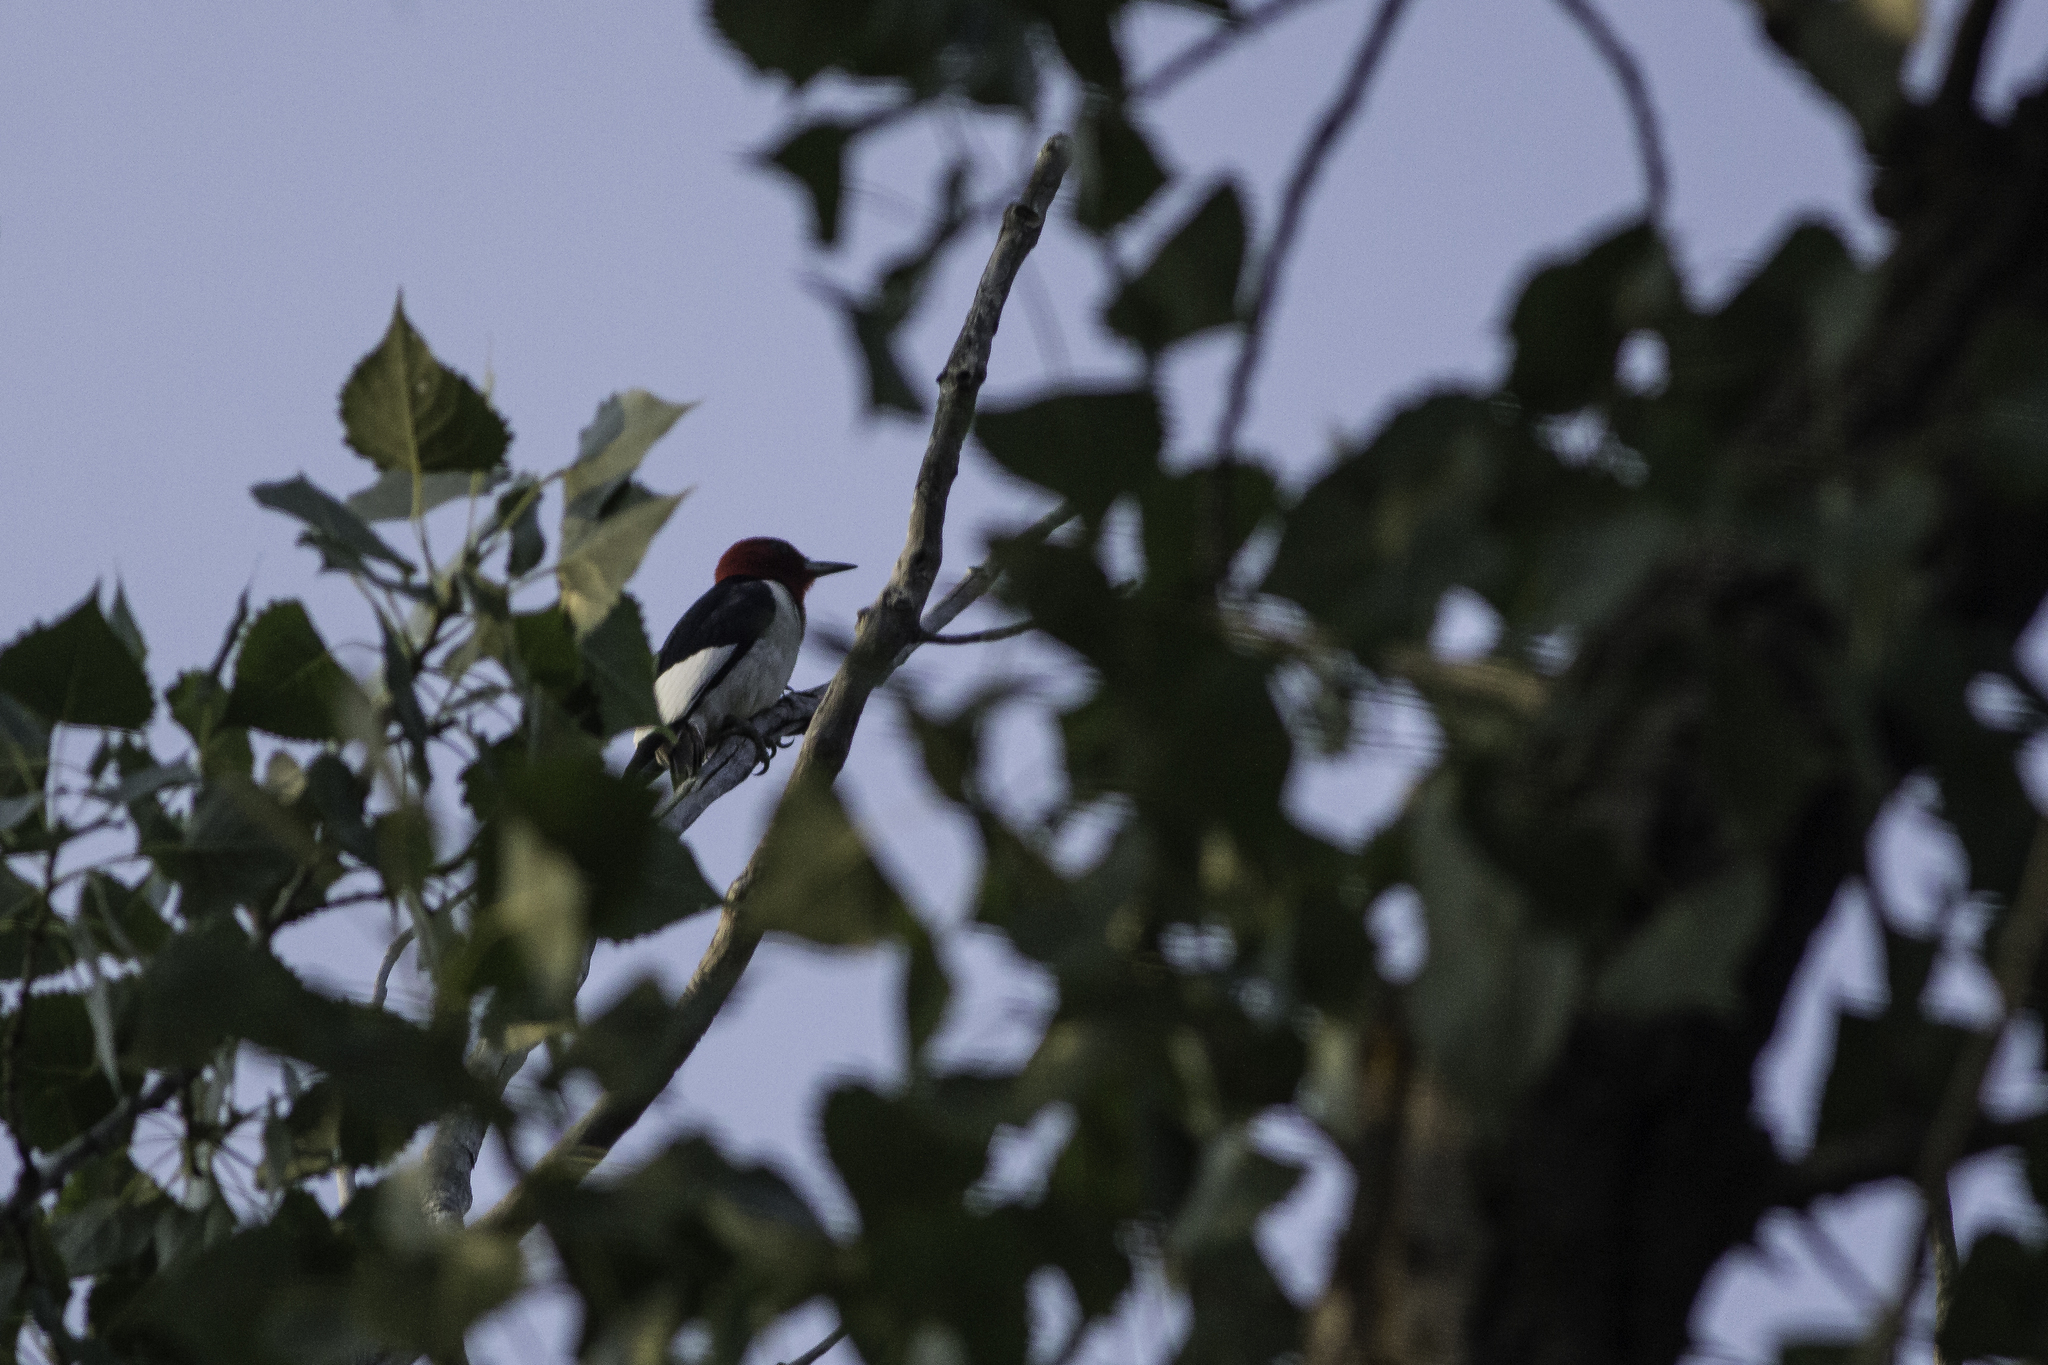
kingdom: Animalia
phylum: Chordata
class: Aves
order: Piciformes
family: Picidae
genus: Melanerpes
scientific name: Melanerpes erythrocephalus
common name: Red-headed woodpecker
